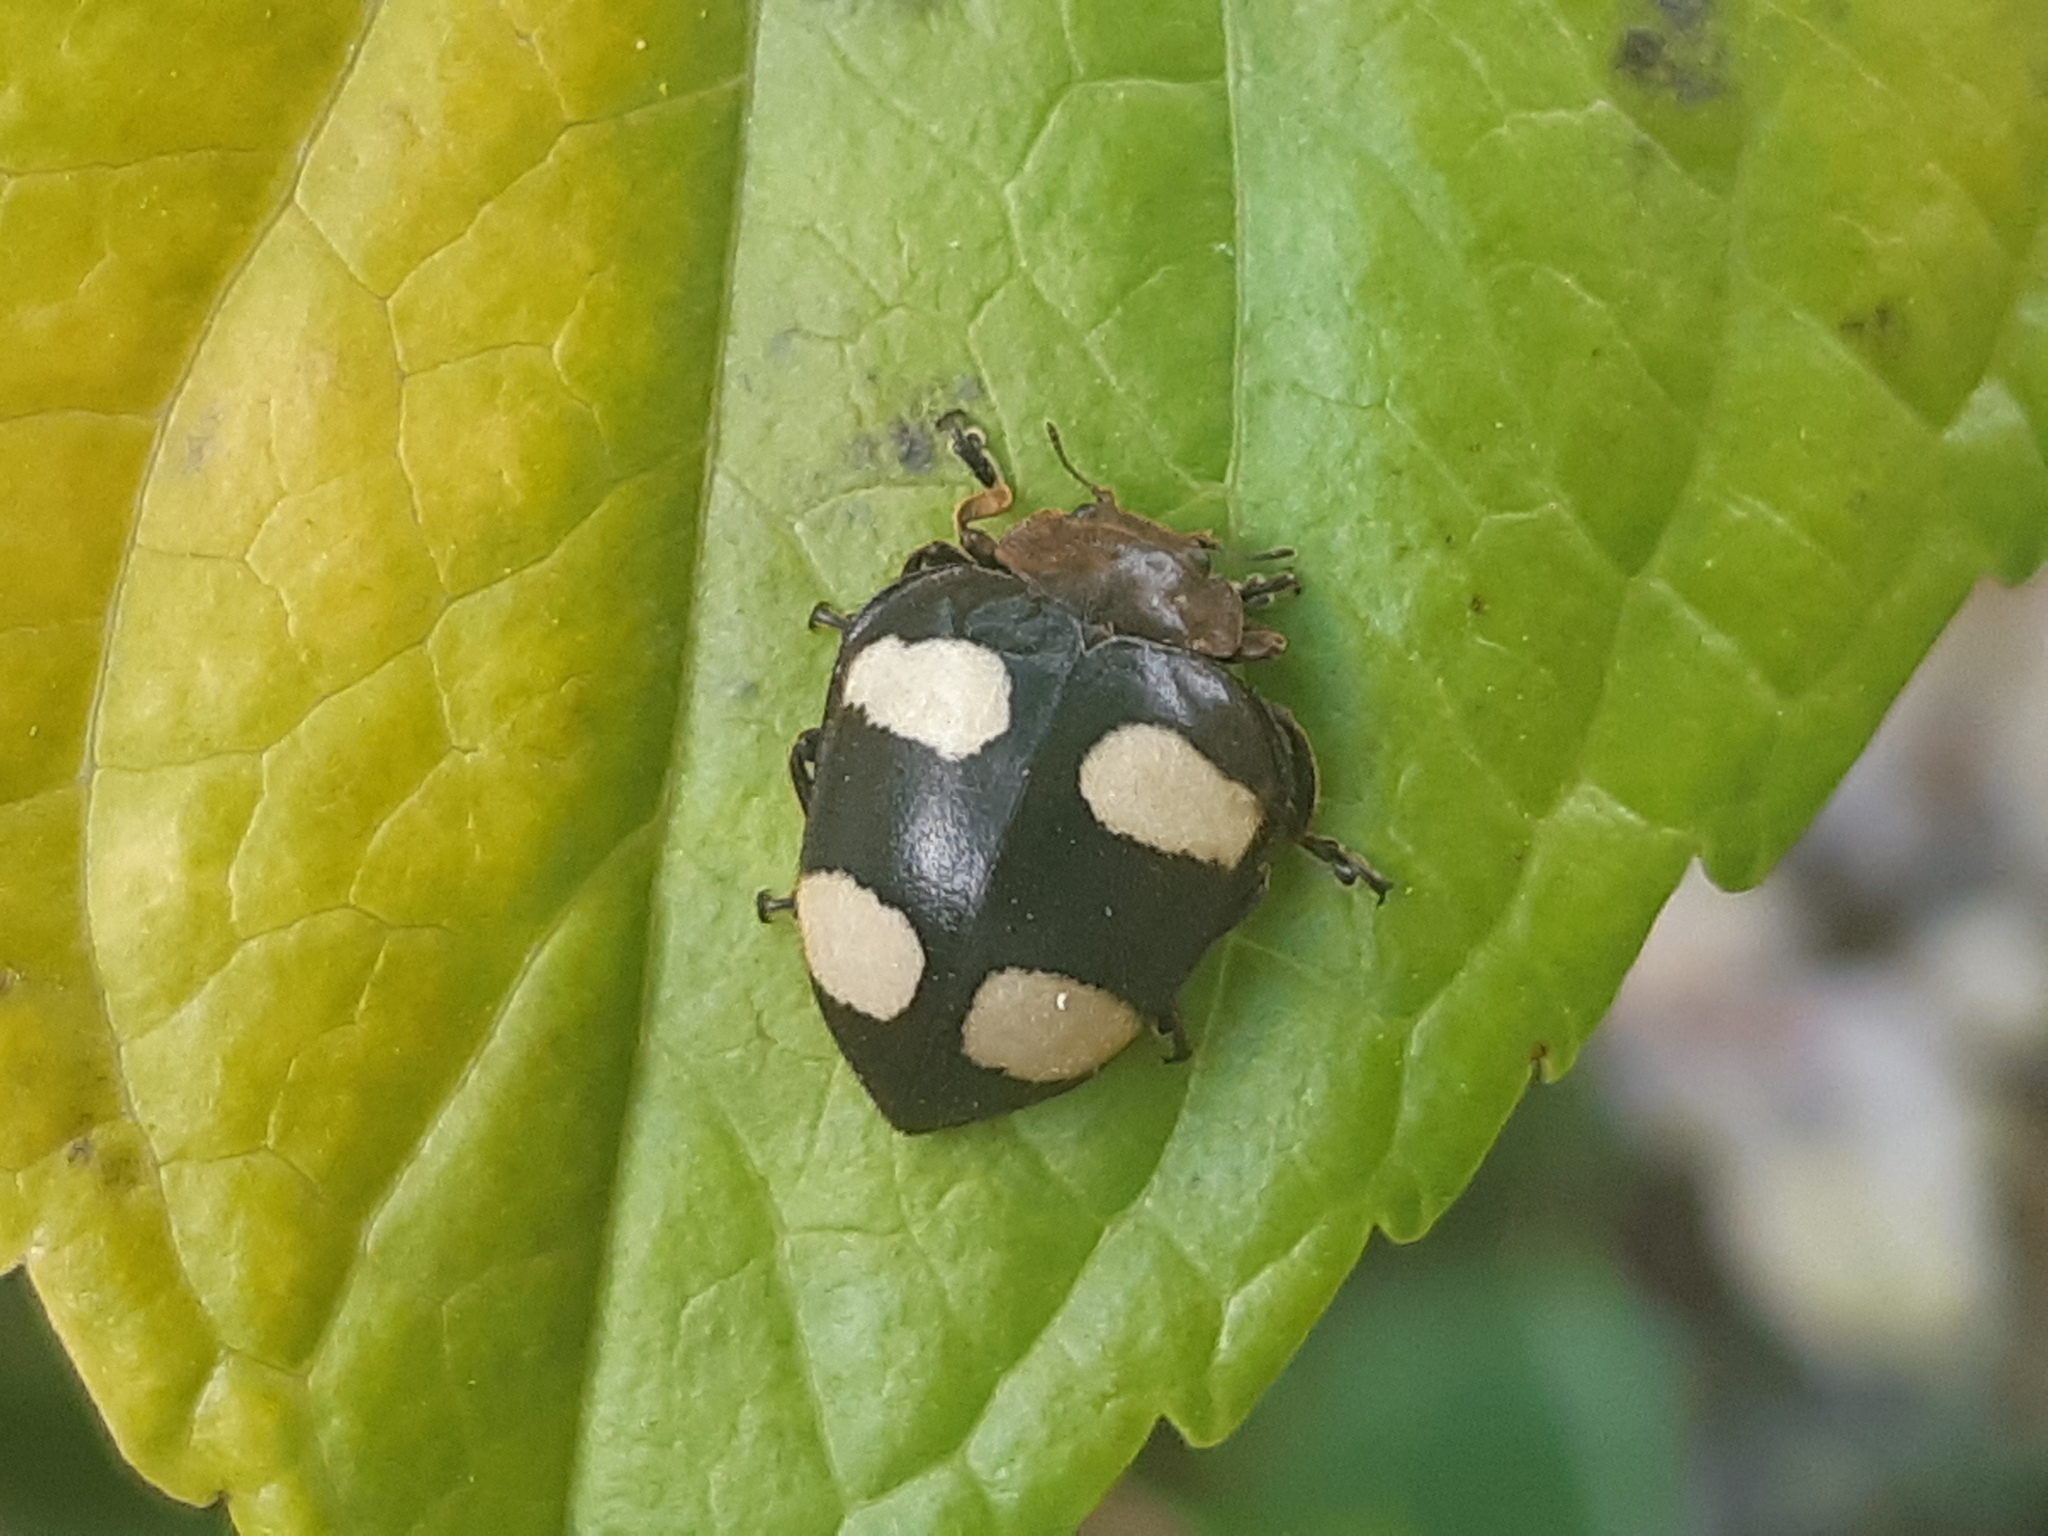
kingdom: Animalia
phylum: Arthropoda
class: Insecta
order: Coleoptera
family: Coccinellidae
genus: Epilachna
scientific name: Epilachna
